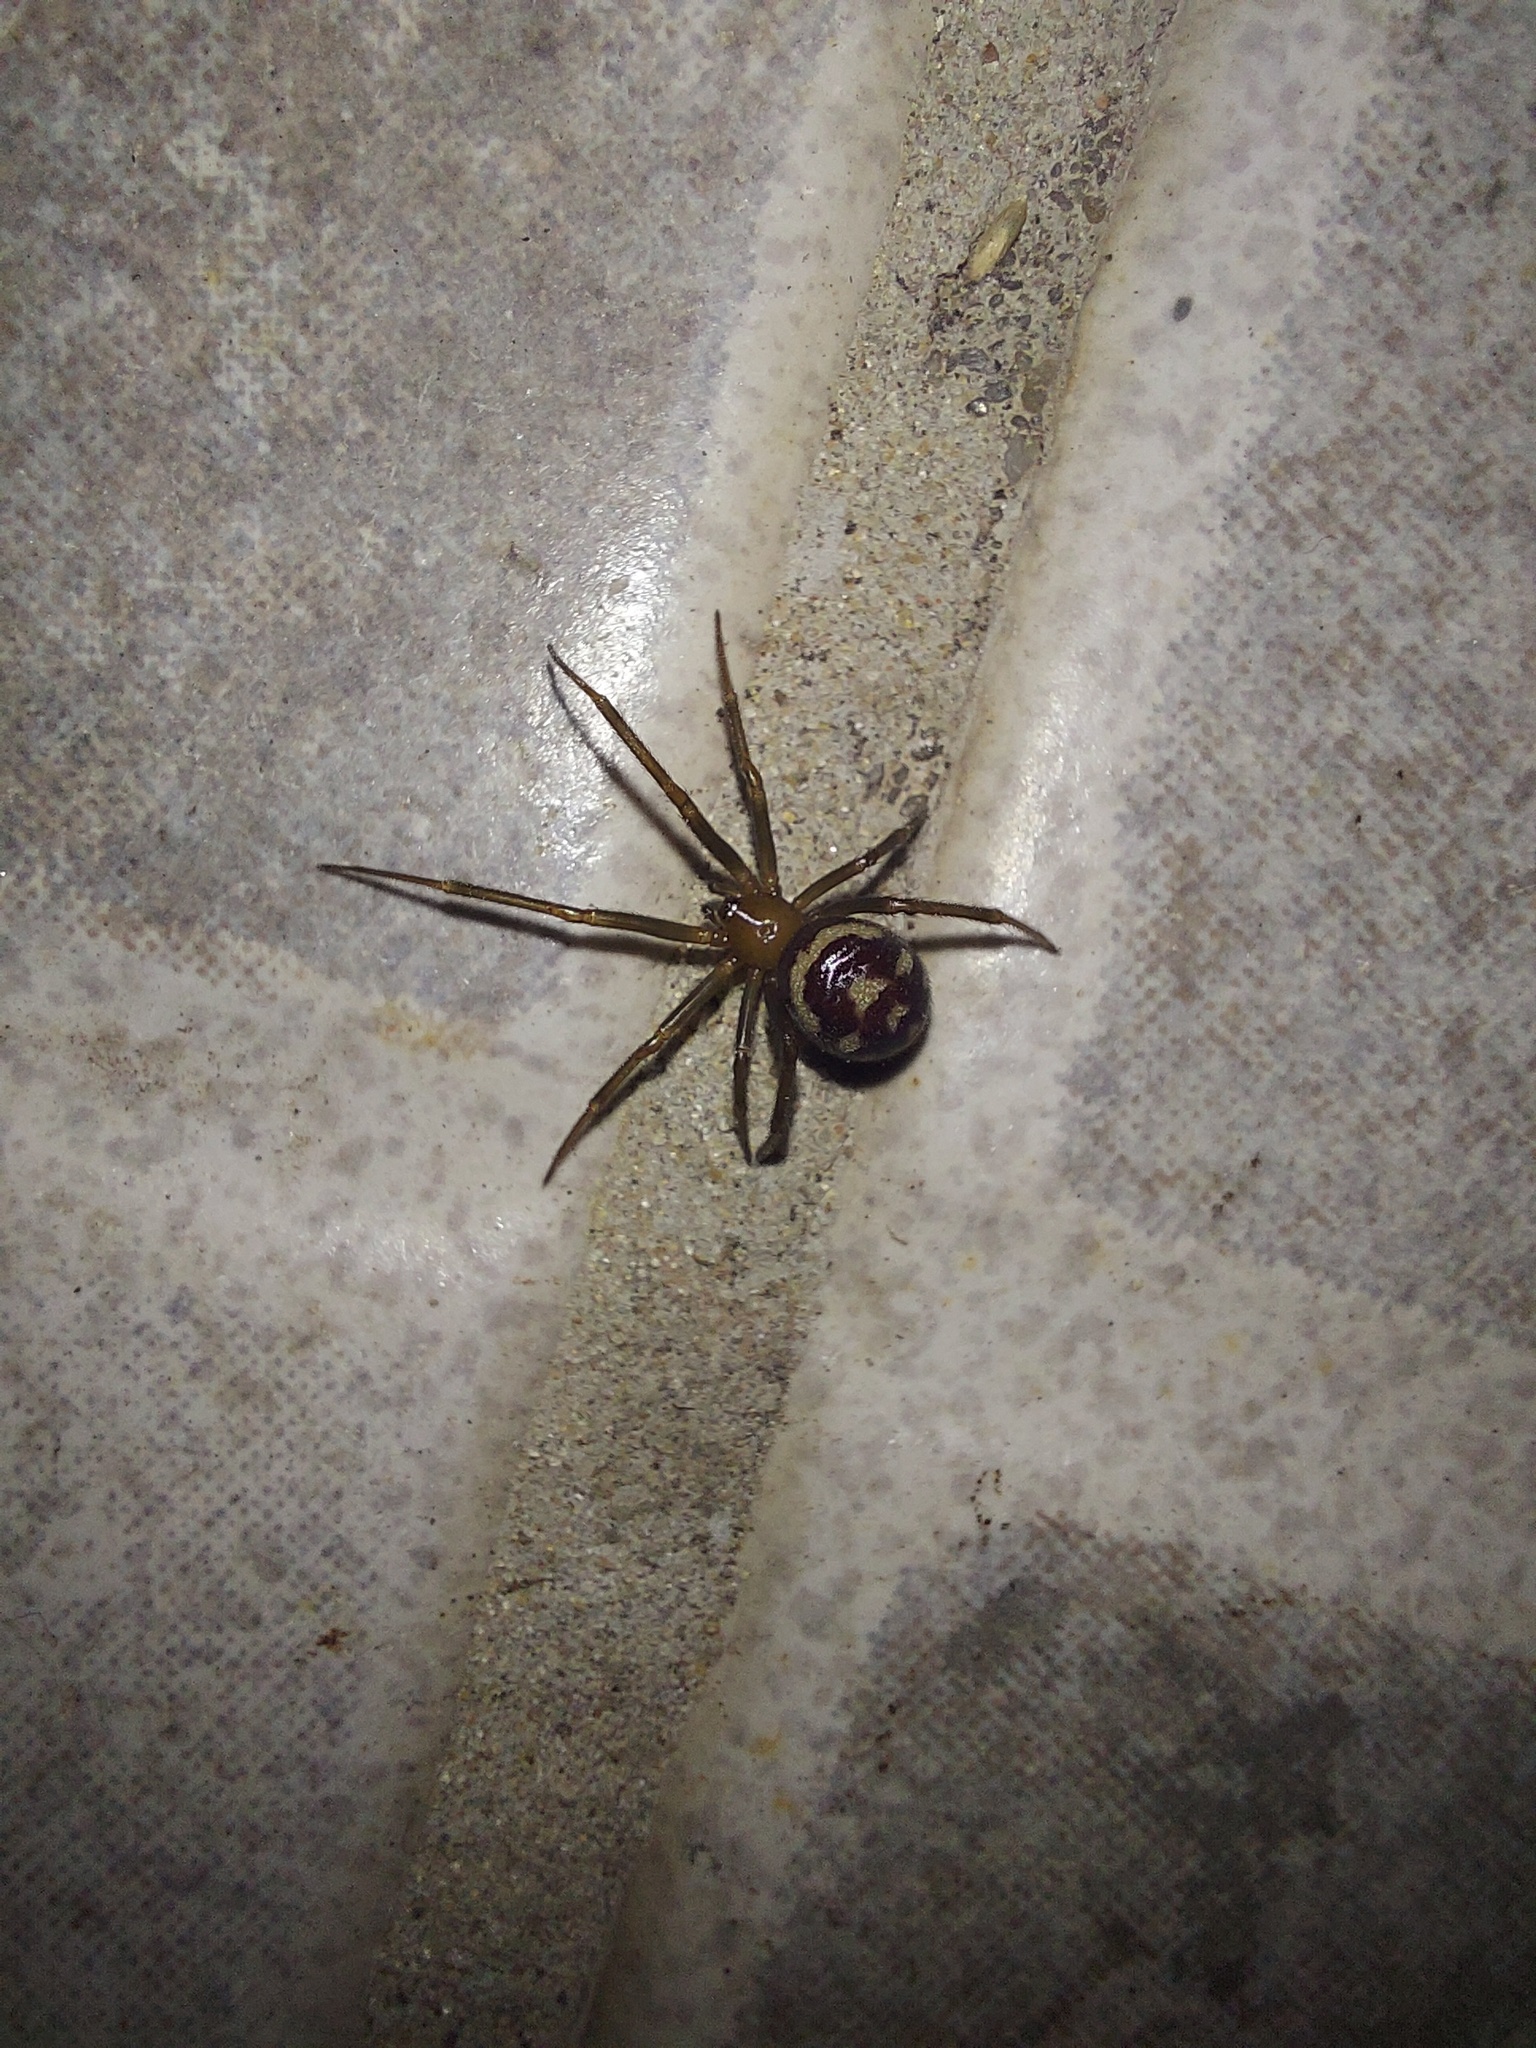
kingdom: Animalia
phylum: Arthropoda
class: Arachnida
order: Araneae
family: Theridiidae
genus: Steatoda
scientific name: Steatoda grossa
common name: False black widow
